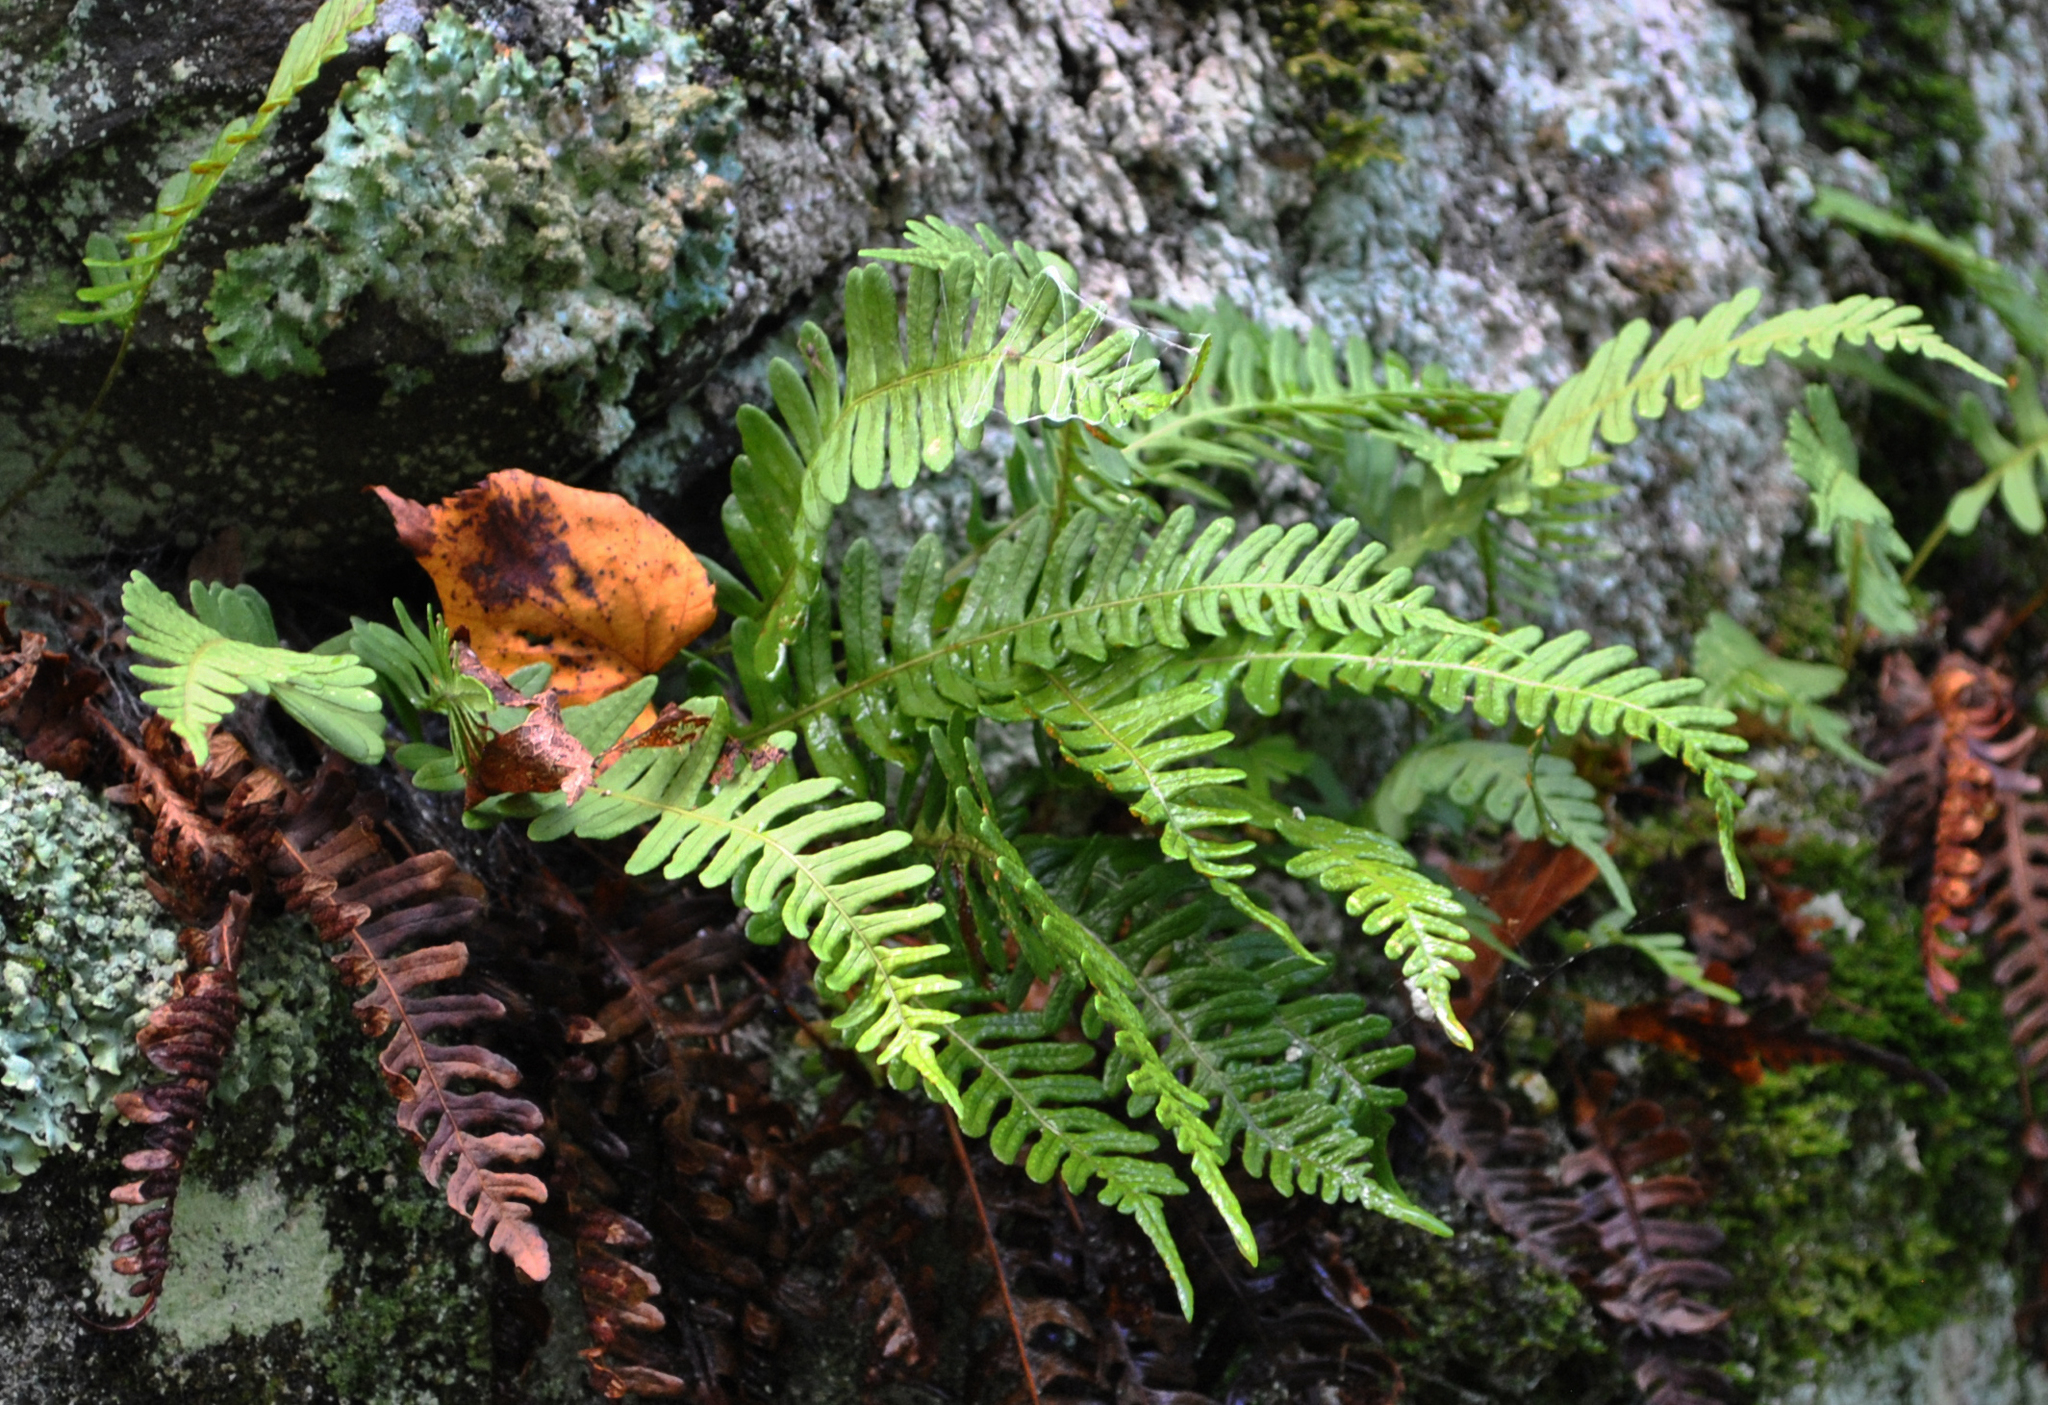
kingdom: Plantae
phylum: Tracheophyta
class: Polypodiopsida
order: Polypodiales
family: Polypodiaceae
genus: Polypodium
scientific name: Polypodium virginianum
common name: American wall fern
